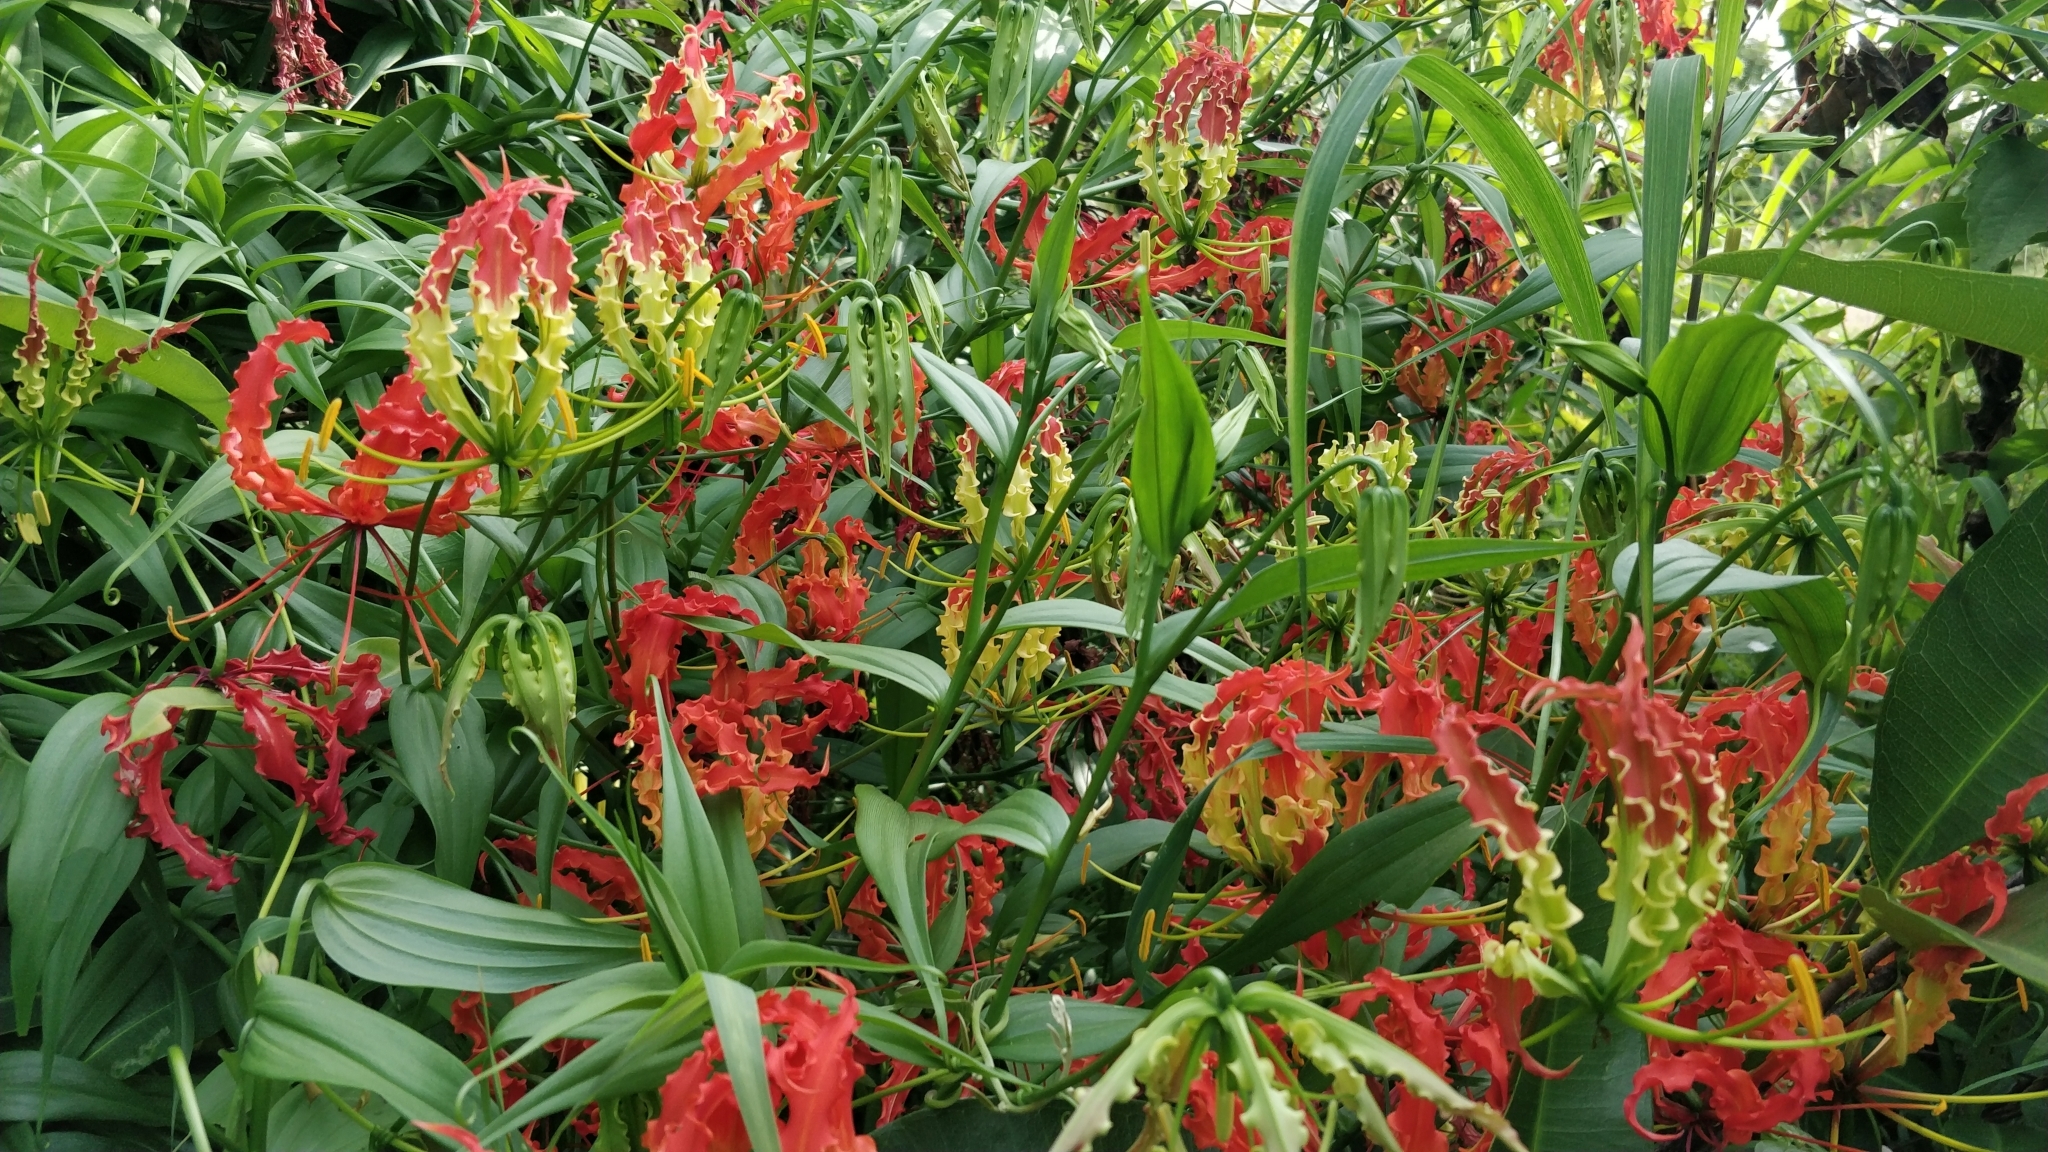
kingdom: Plantae
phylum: Tracheophyta
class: Liliopsida
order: Liliales
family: Colchicaceae
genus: Gloriosa
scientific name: Gloriosa superba
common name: Flame lily
